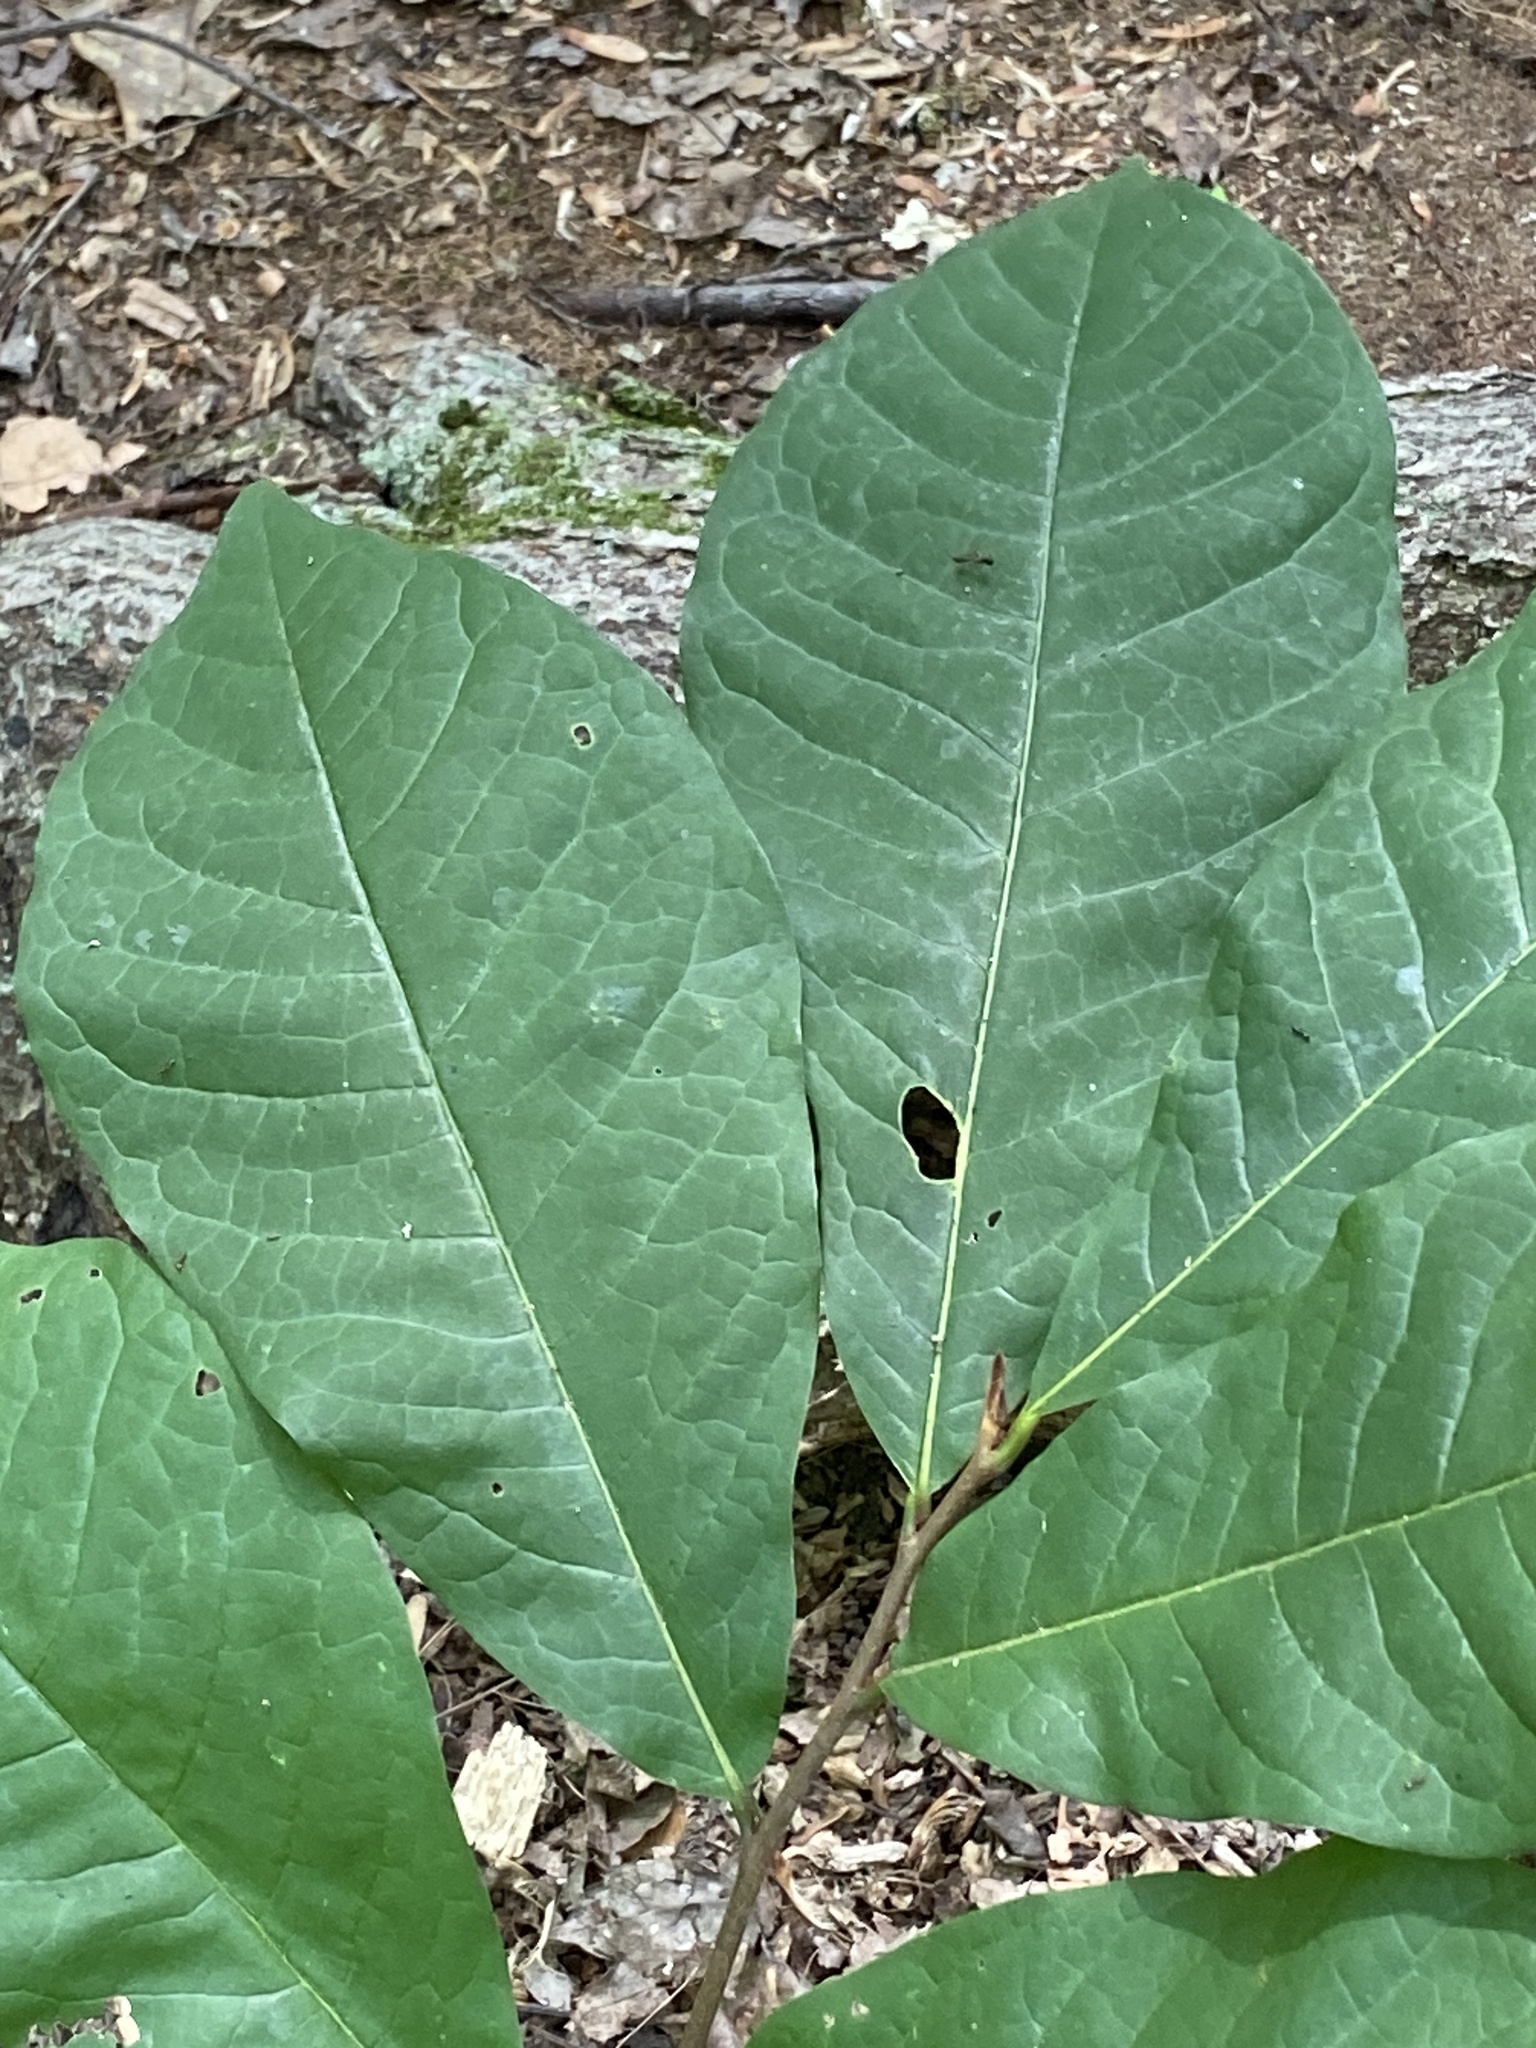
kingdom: Plantae
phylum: Tracheophyta
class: Magnoliopsida
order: Magnoliales
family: Annonaceae
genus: Asimina
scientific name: Asimina triloba
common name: Dog-banana
